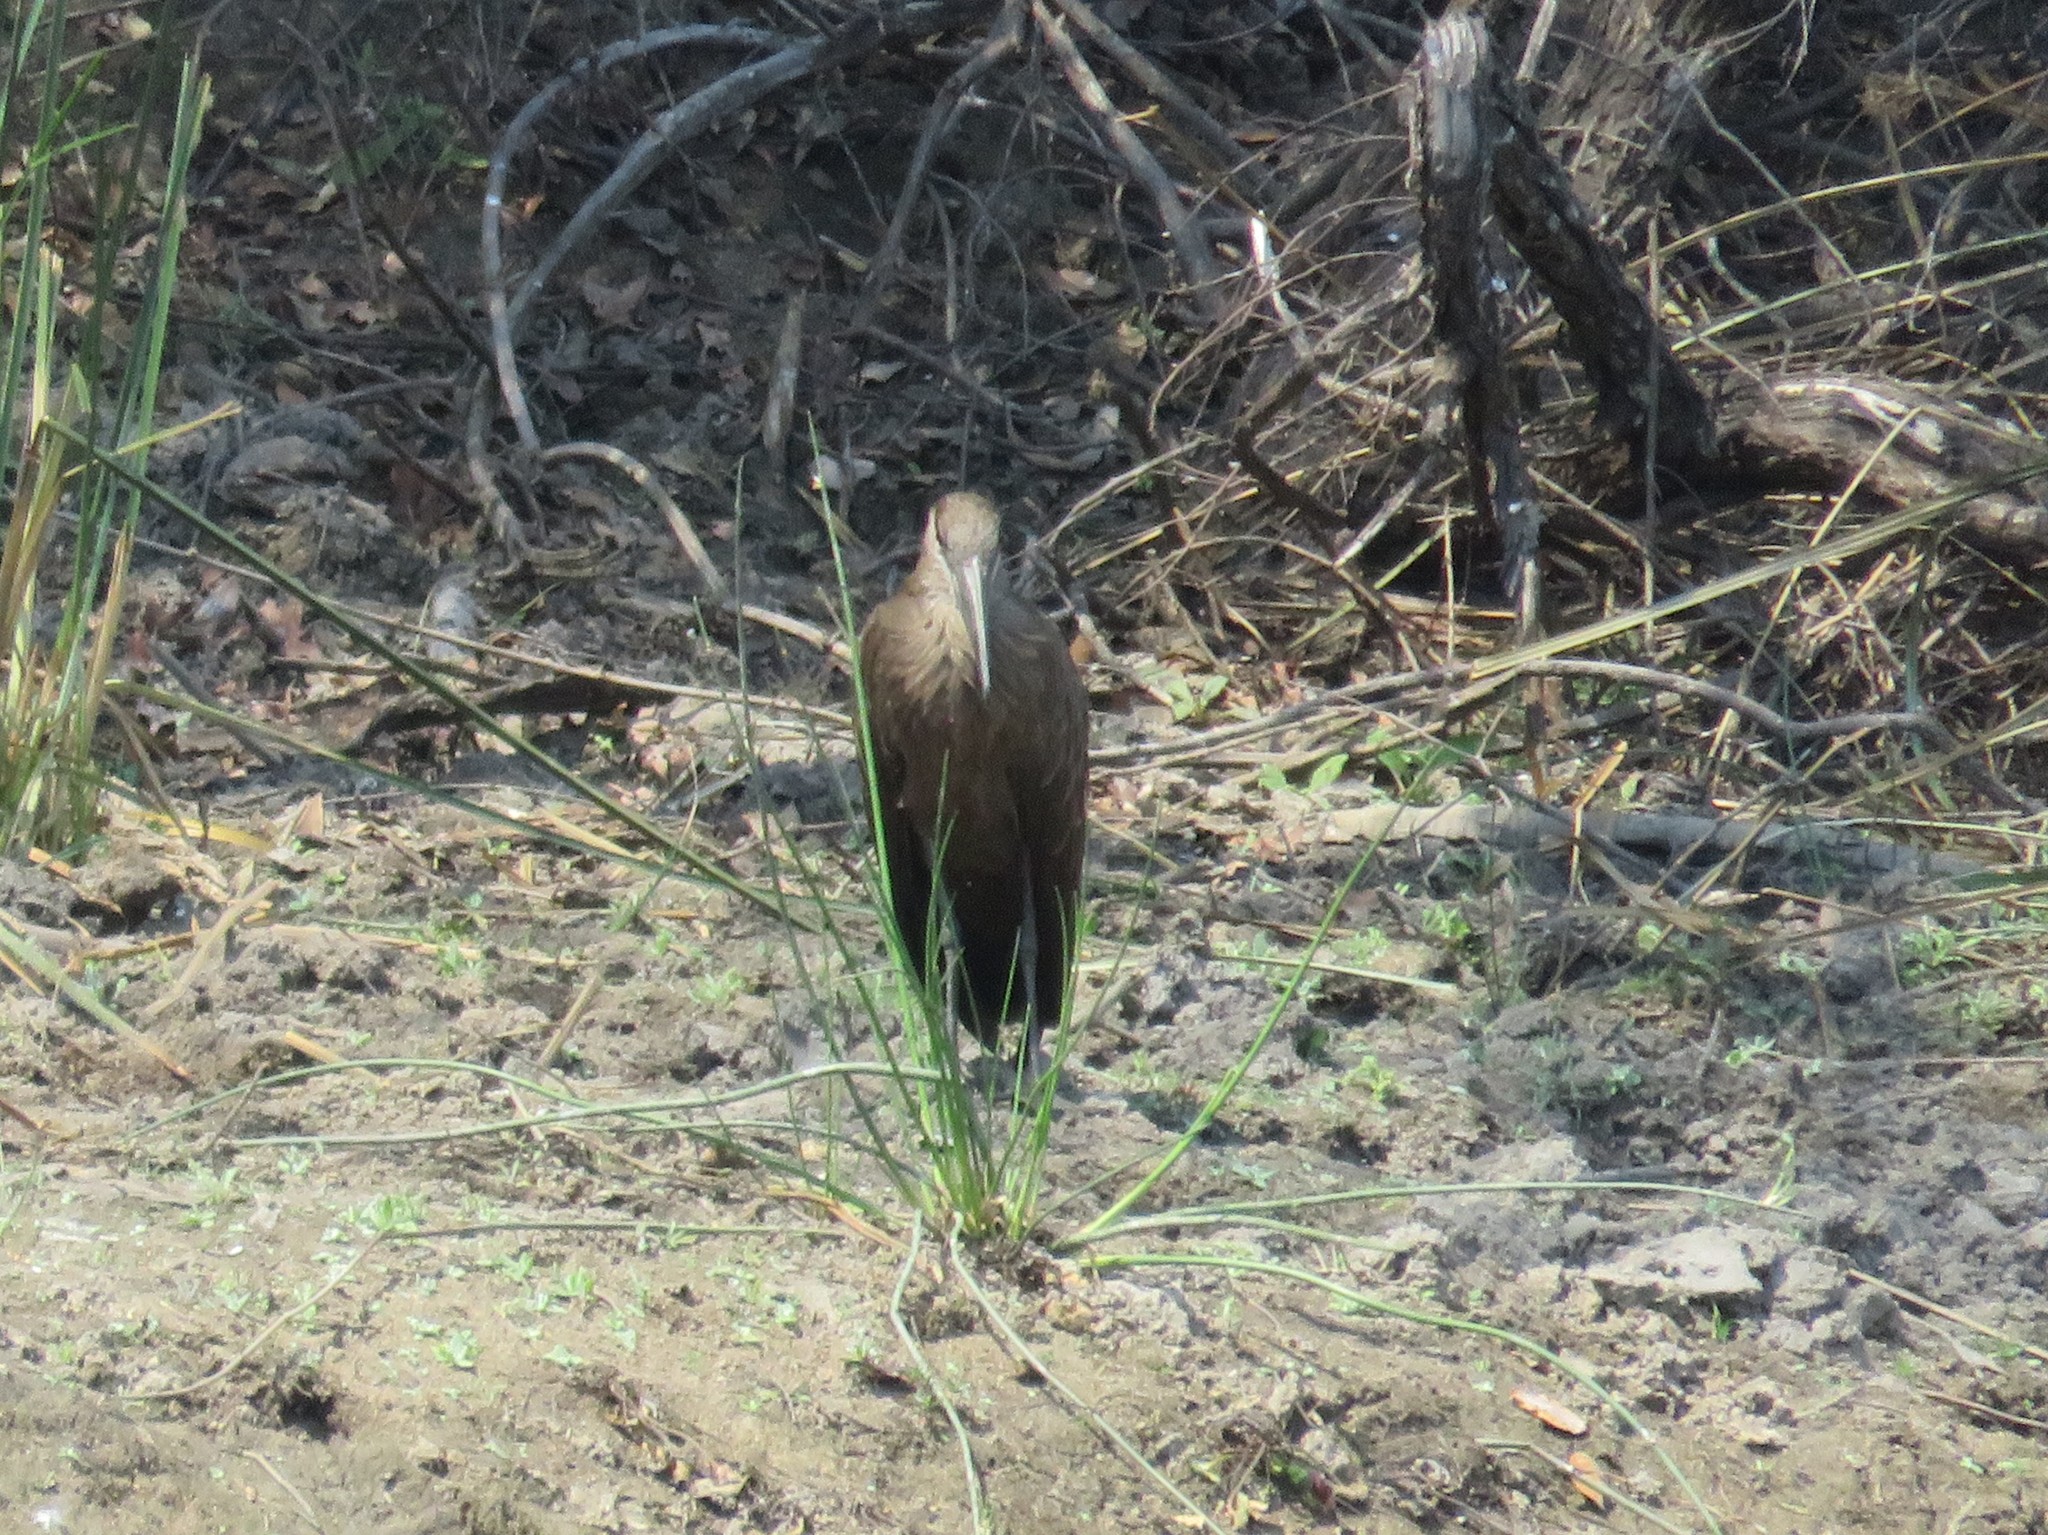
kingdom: Animalia
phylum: Chordata
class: Aves
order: Pelecaniformes
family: Scopidae
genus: Scopus
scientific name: Scopus umbretta
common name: Hamerkop
